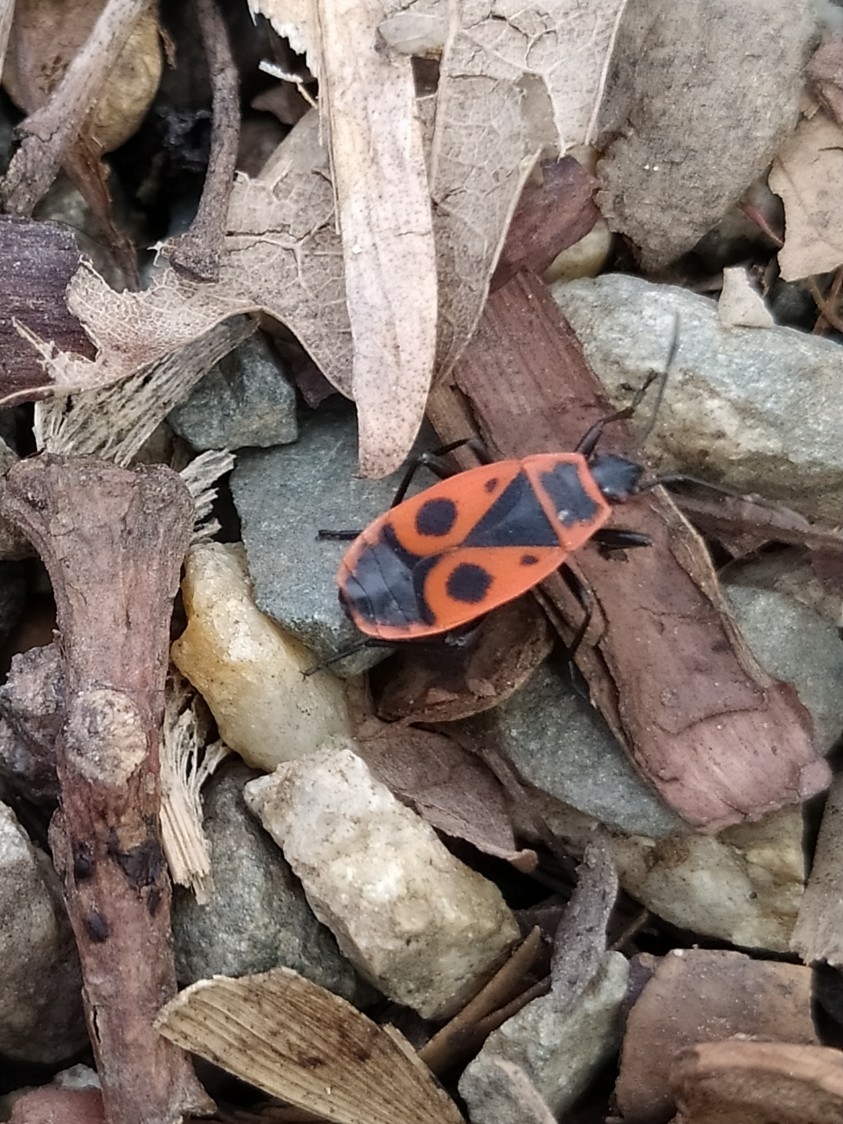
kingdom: Animalia
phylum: Arthropoda
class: Insecta
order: Hemiptera
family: Pyrrhocoridae
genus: Pyrrhocoris
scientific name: Pyrrhocoris apterus
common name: Firebug
